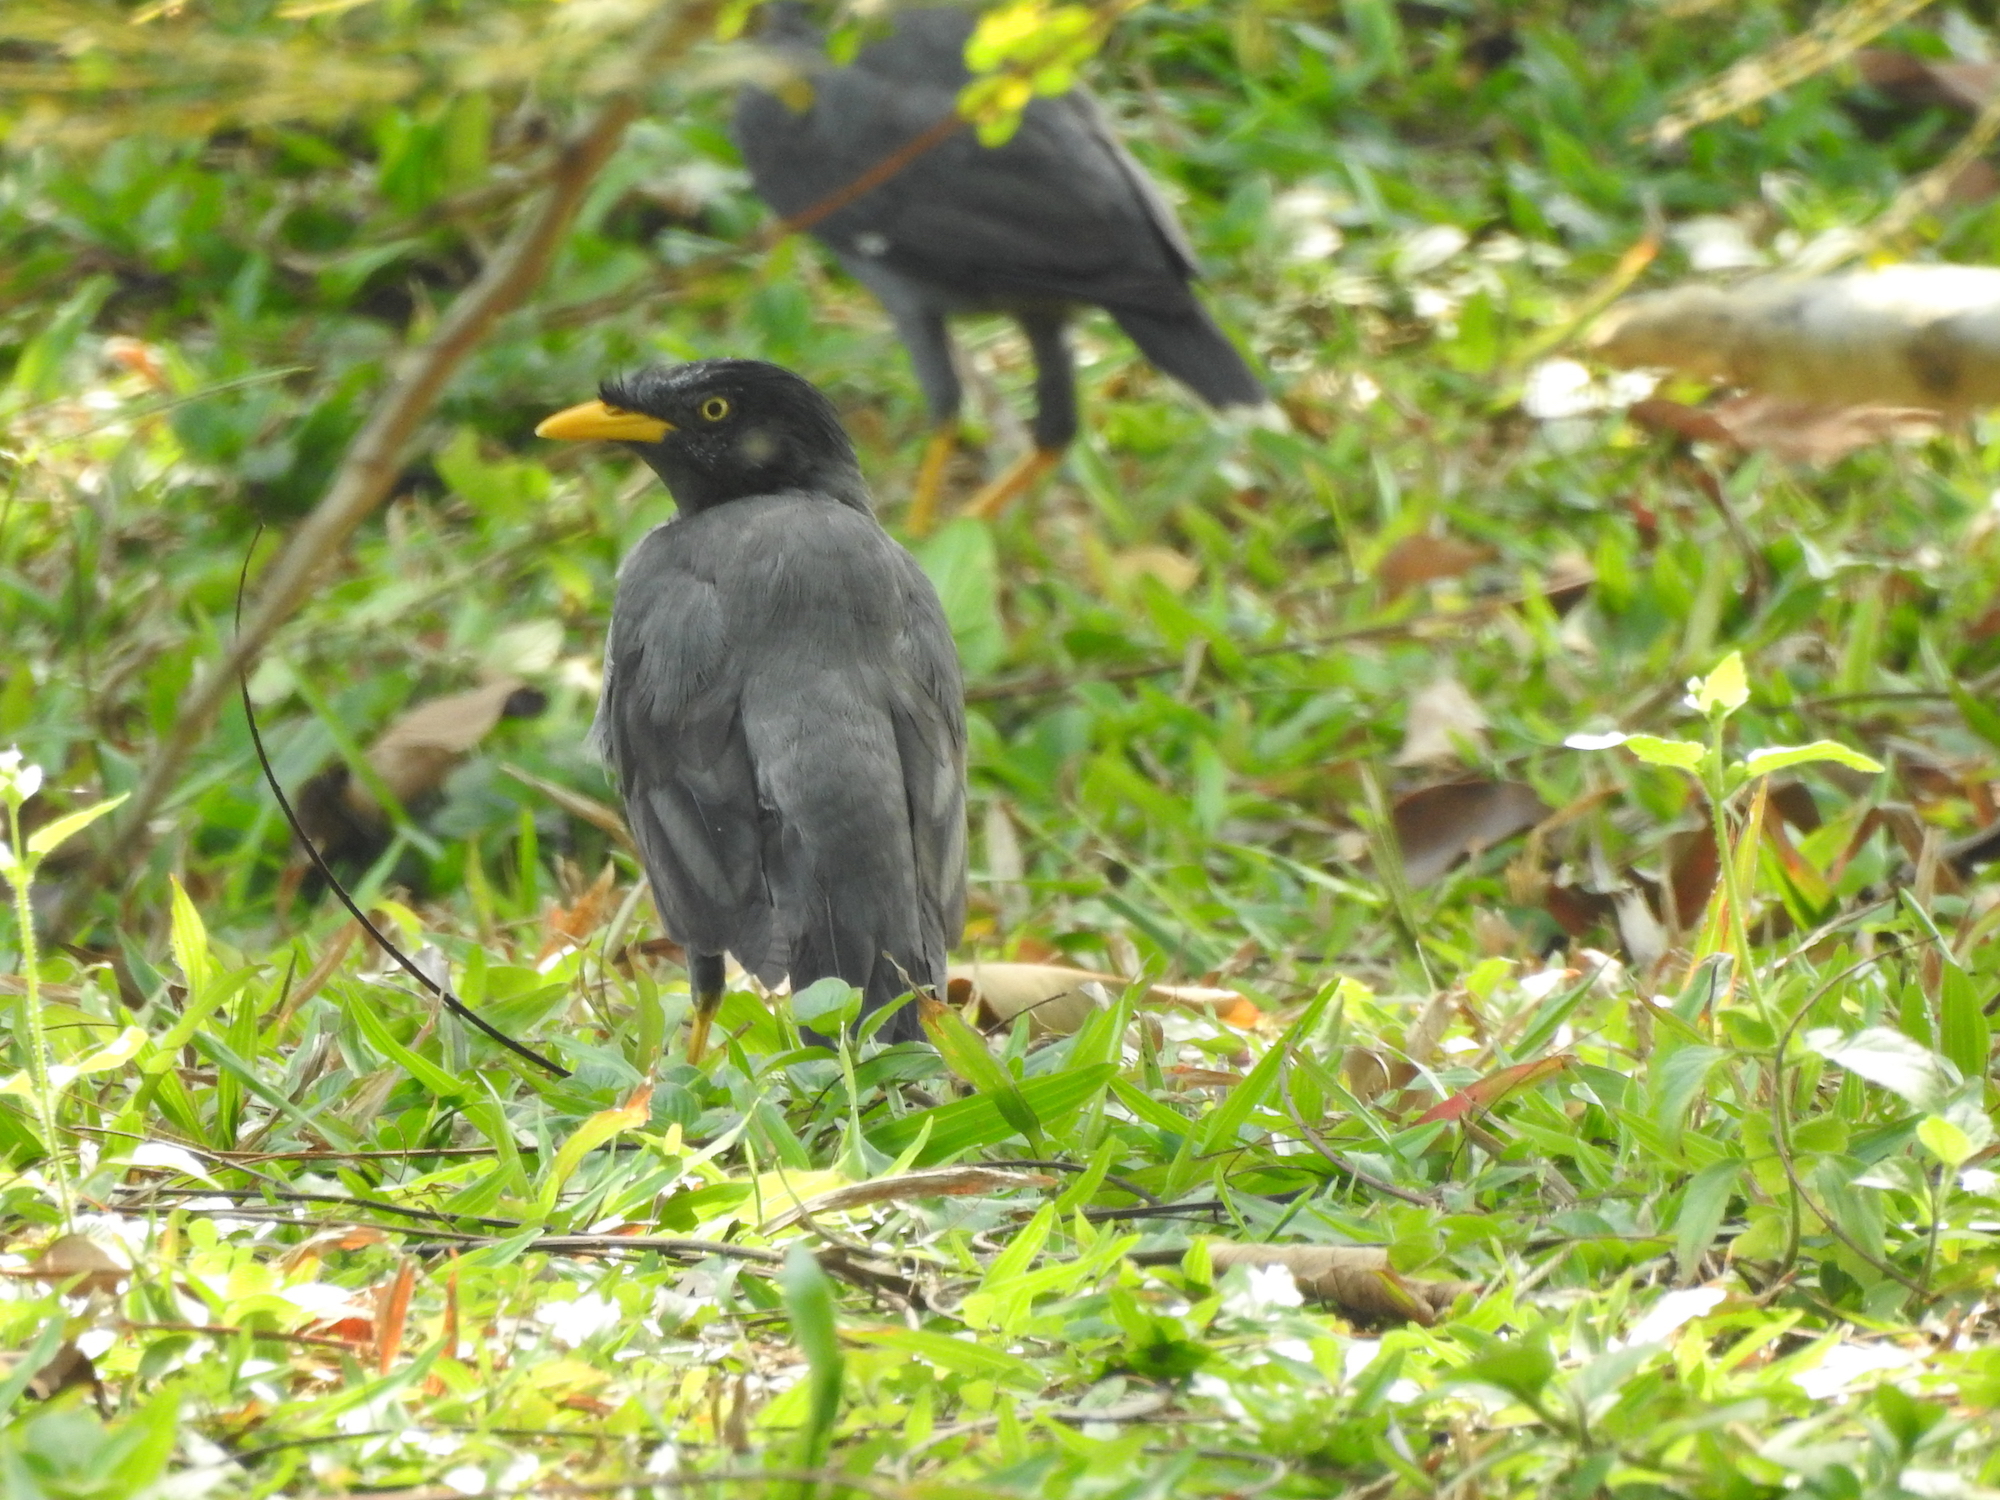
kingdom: Animalia
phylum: Chordata
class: Aves
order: Passeriformes
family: Sturnidae
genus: Acridotheres
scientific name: Acridotheres javanicus
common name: Javan myna
